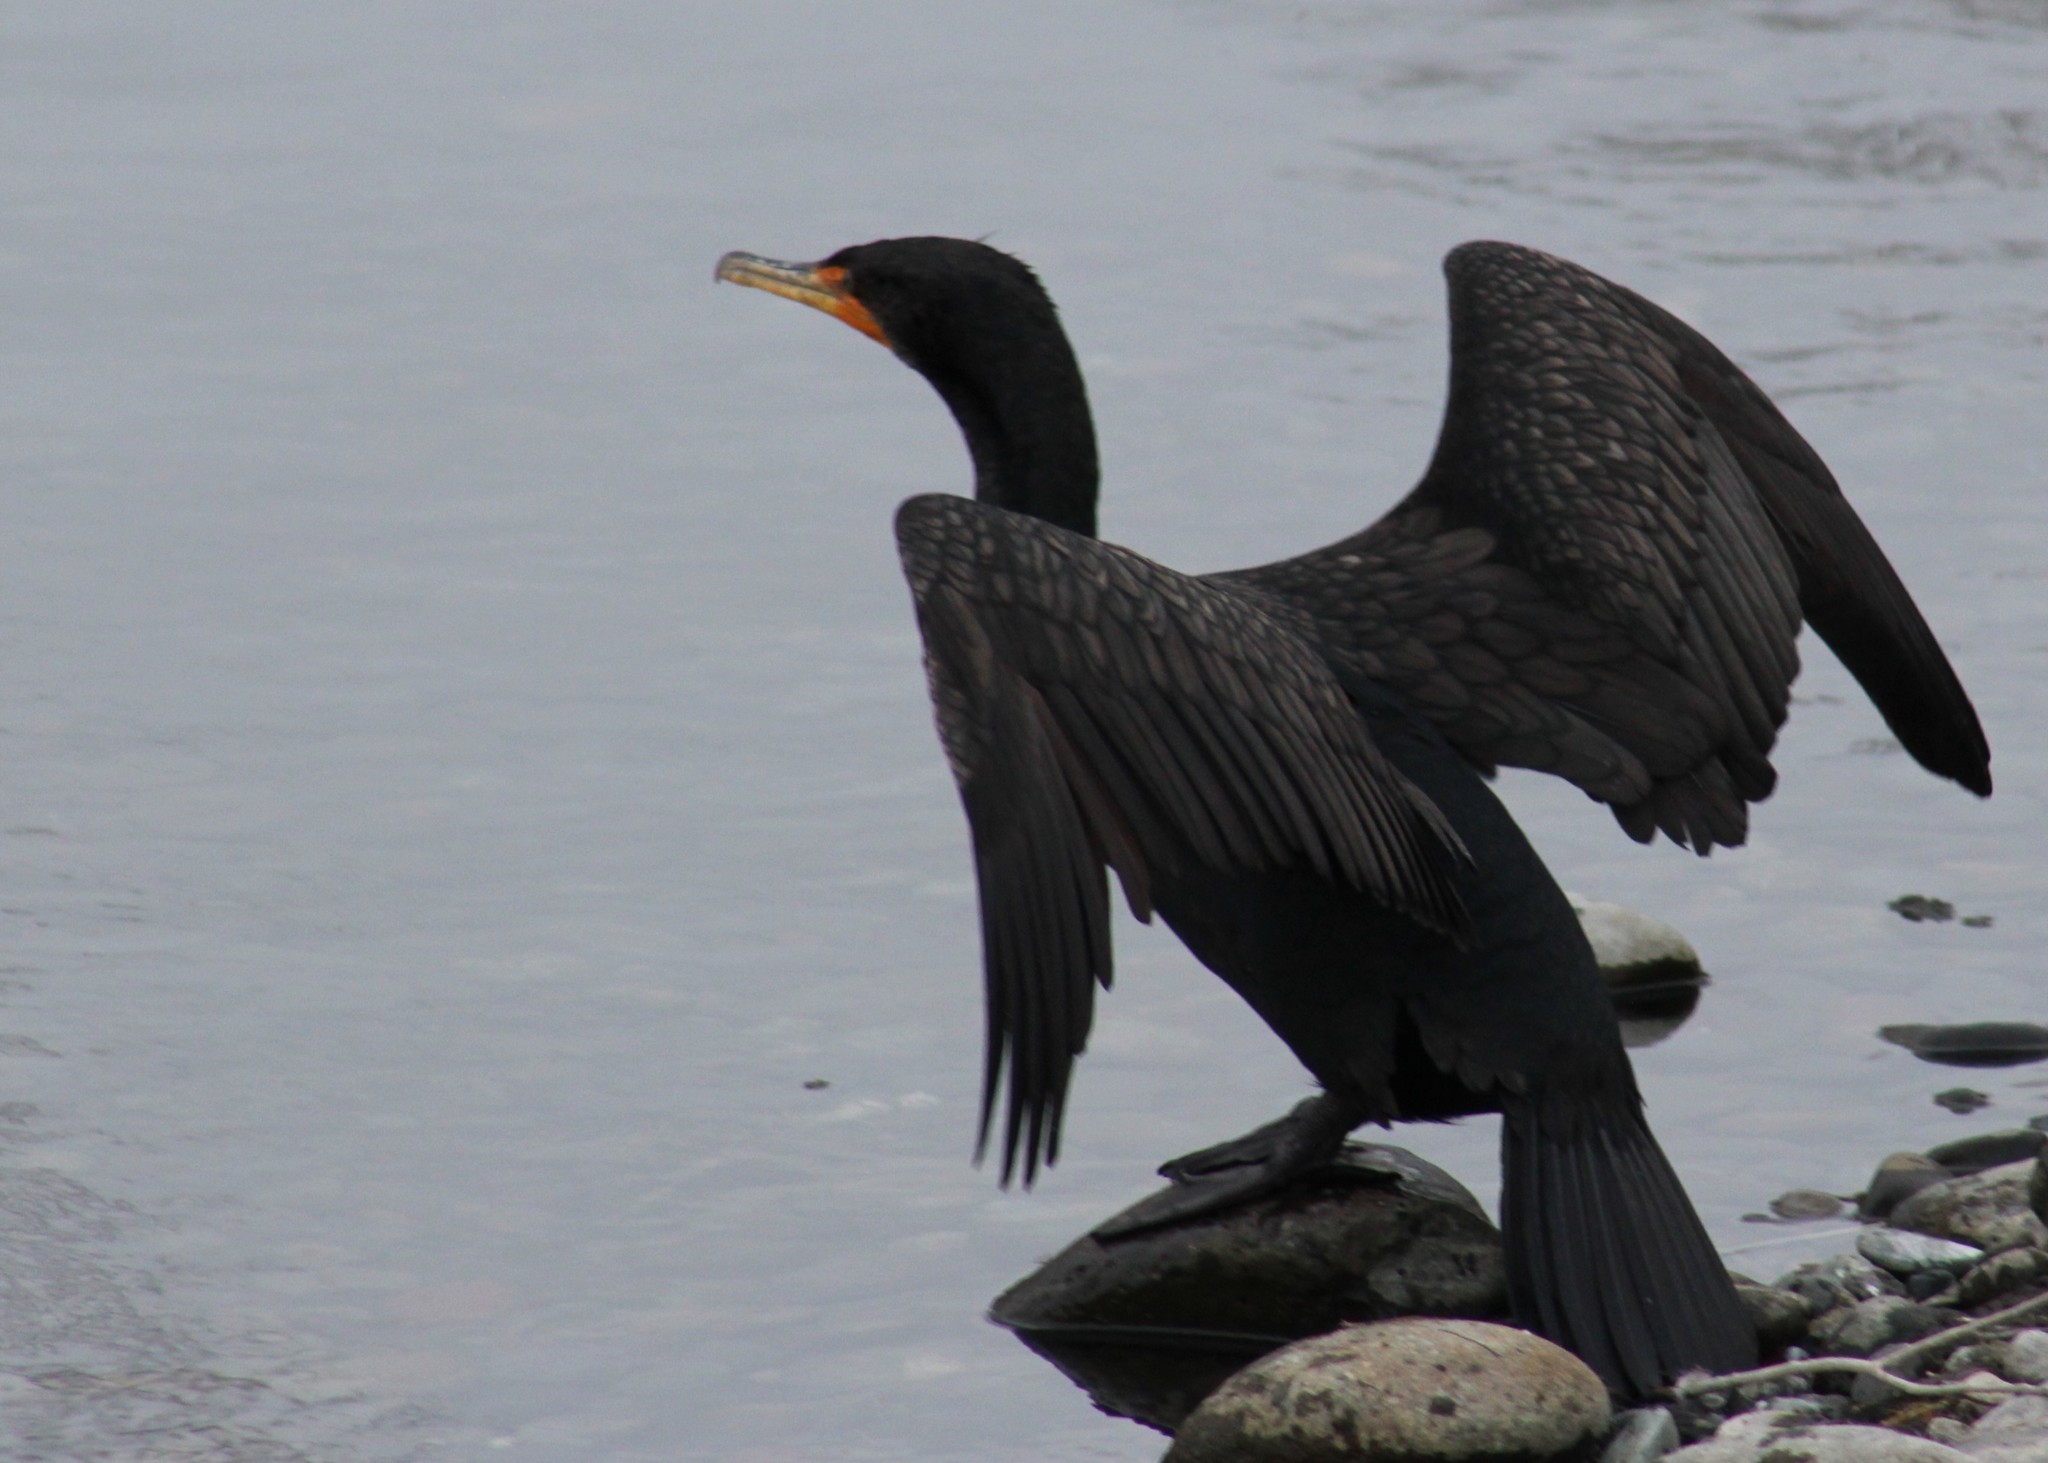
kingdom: Animalia
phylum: Chordata
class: Aves
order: Suliformes
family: Phalacrocoracidae
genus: Phalacrocorax
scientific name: Phalacrocorax auritus
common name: Double-crested cormorant
